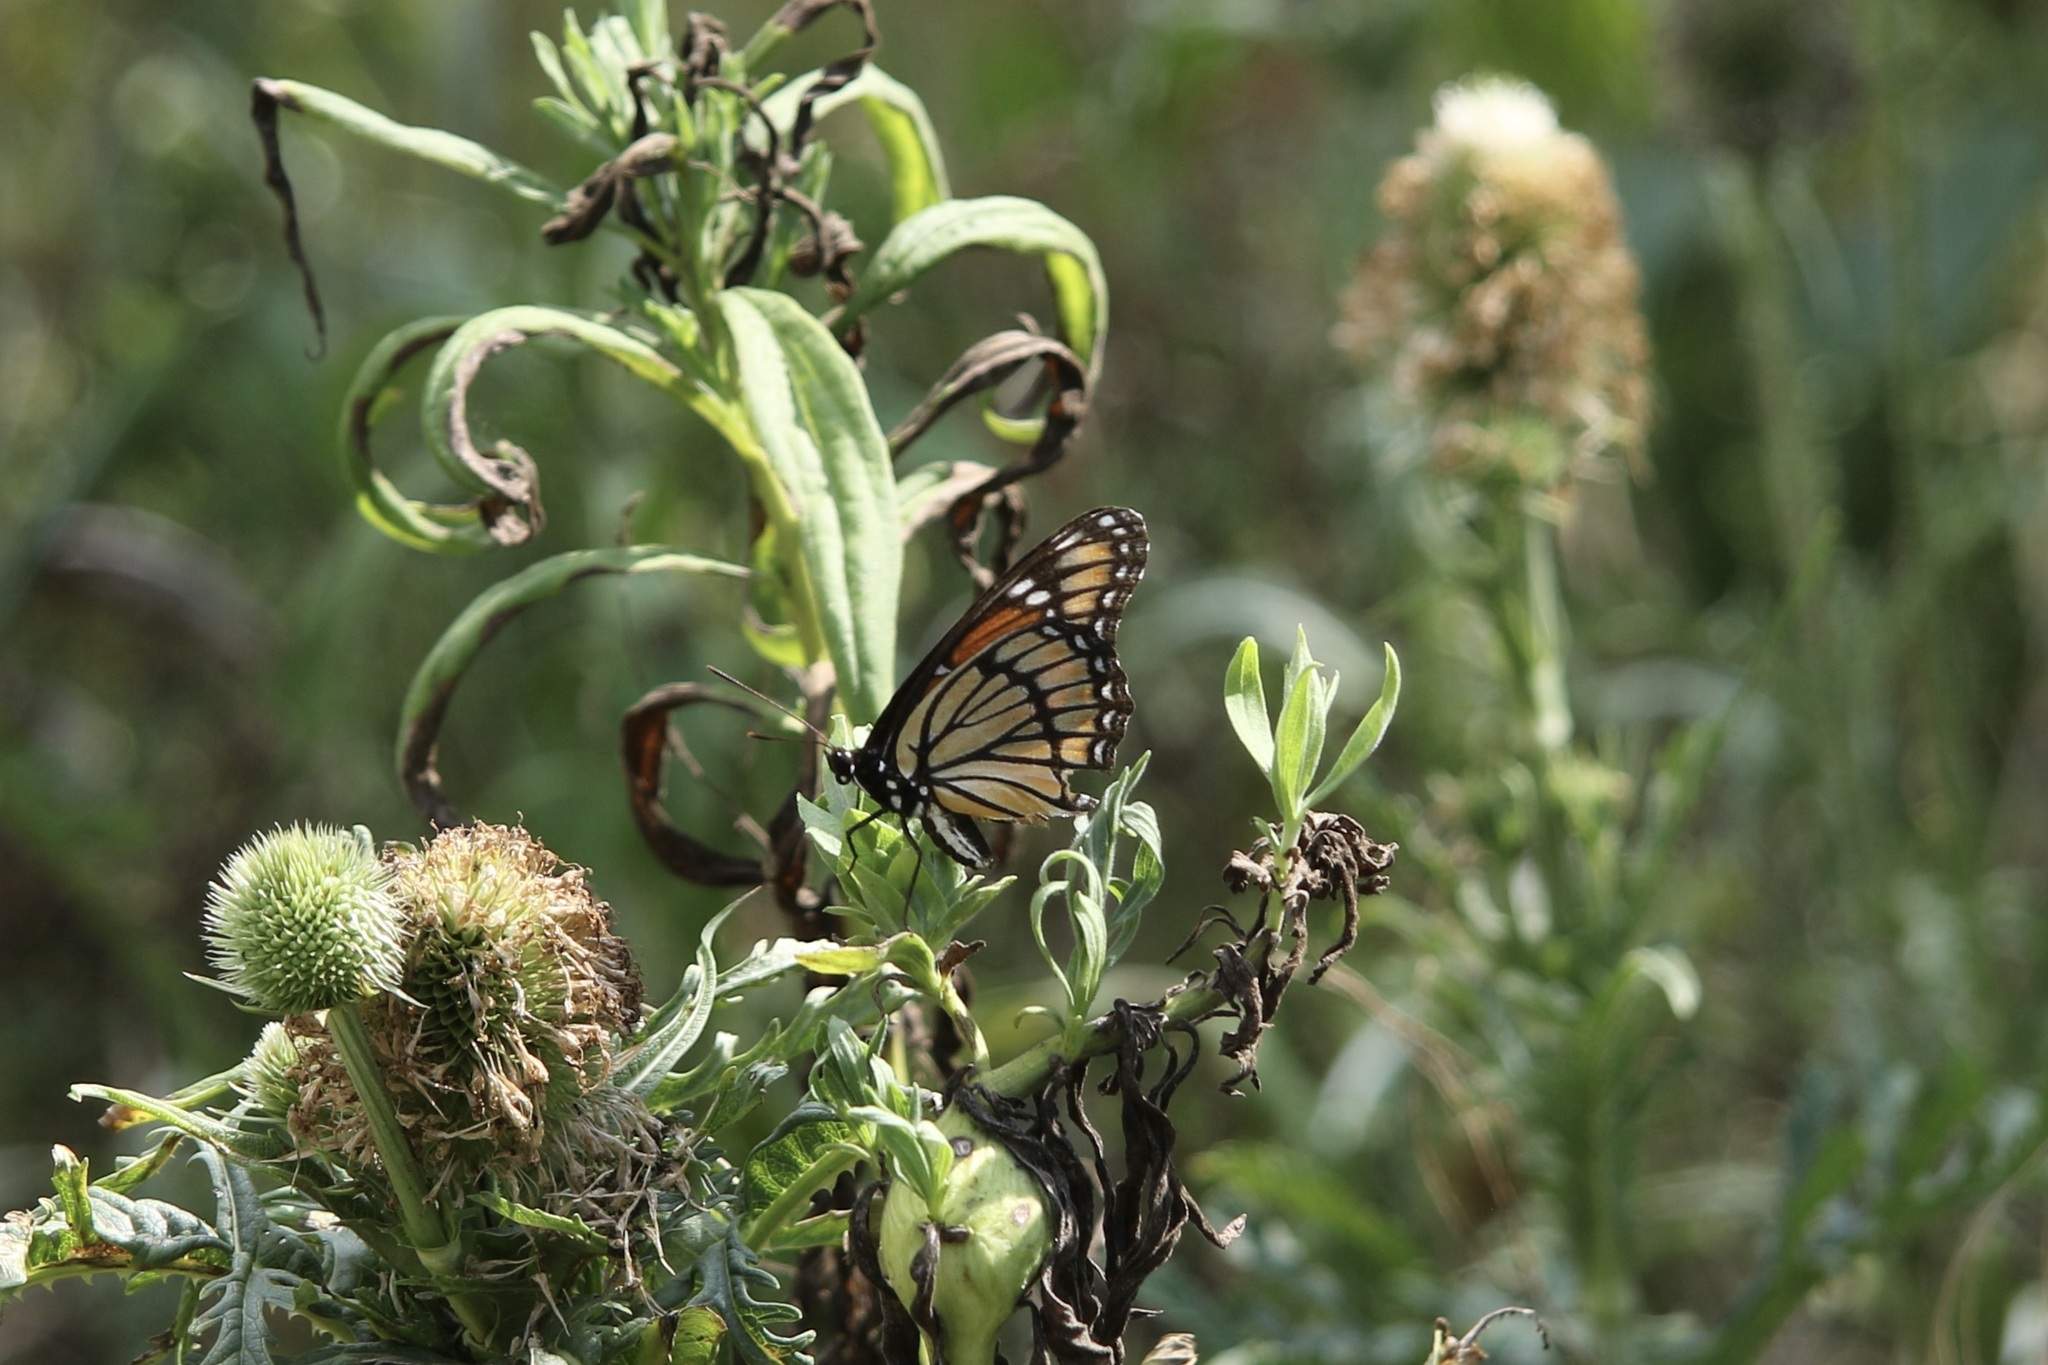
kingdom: Animalia
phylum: Arthropoda
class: Insecta
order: Lepidoptera
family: Nymphalidae
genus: Limenitis
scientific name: Limenitis archippus
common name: Viceroy
